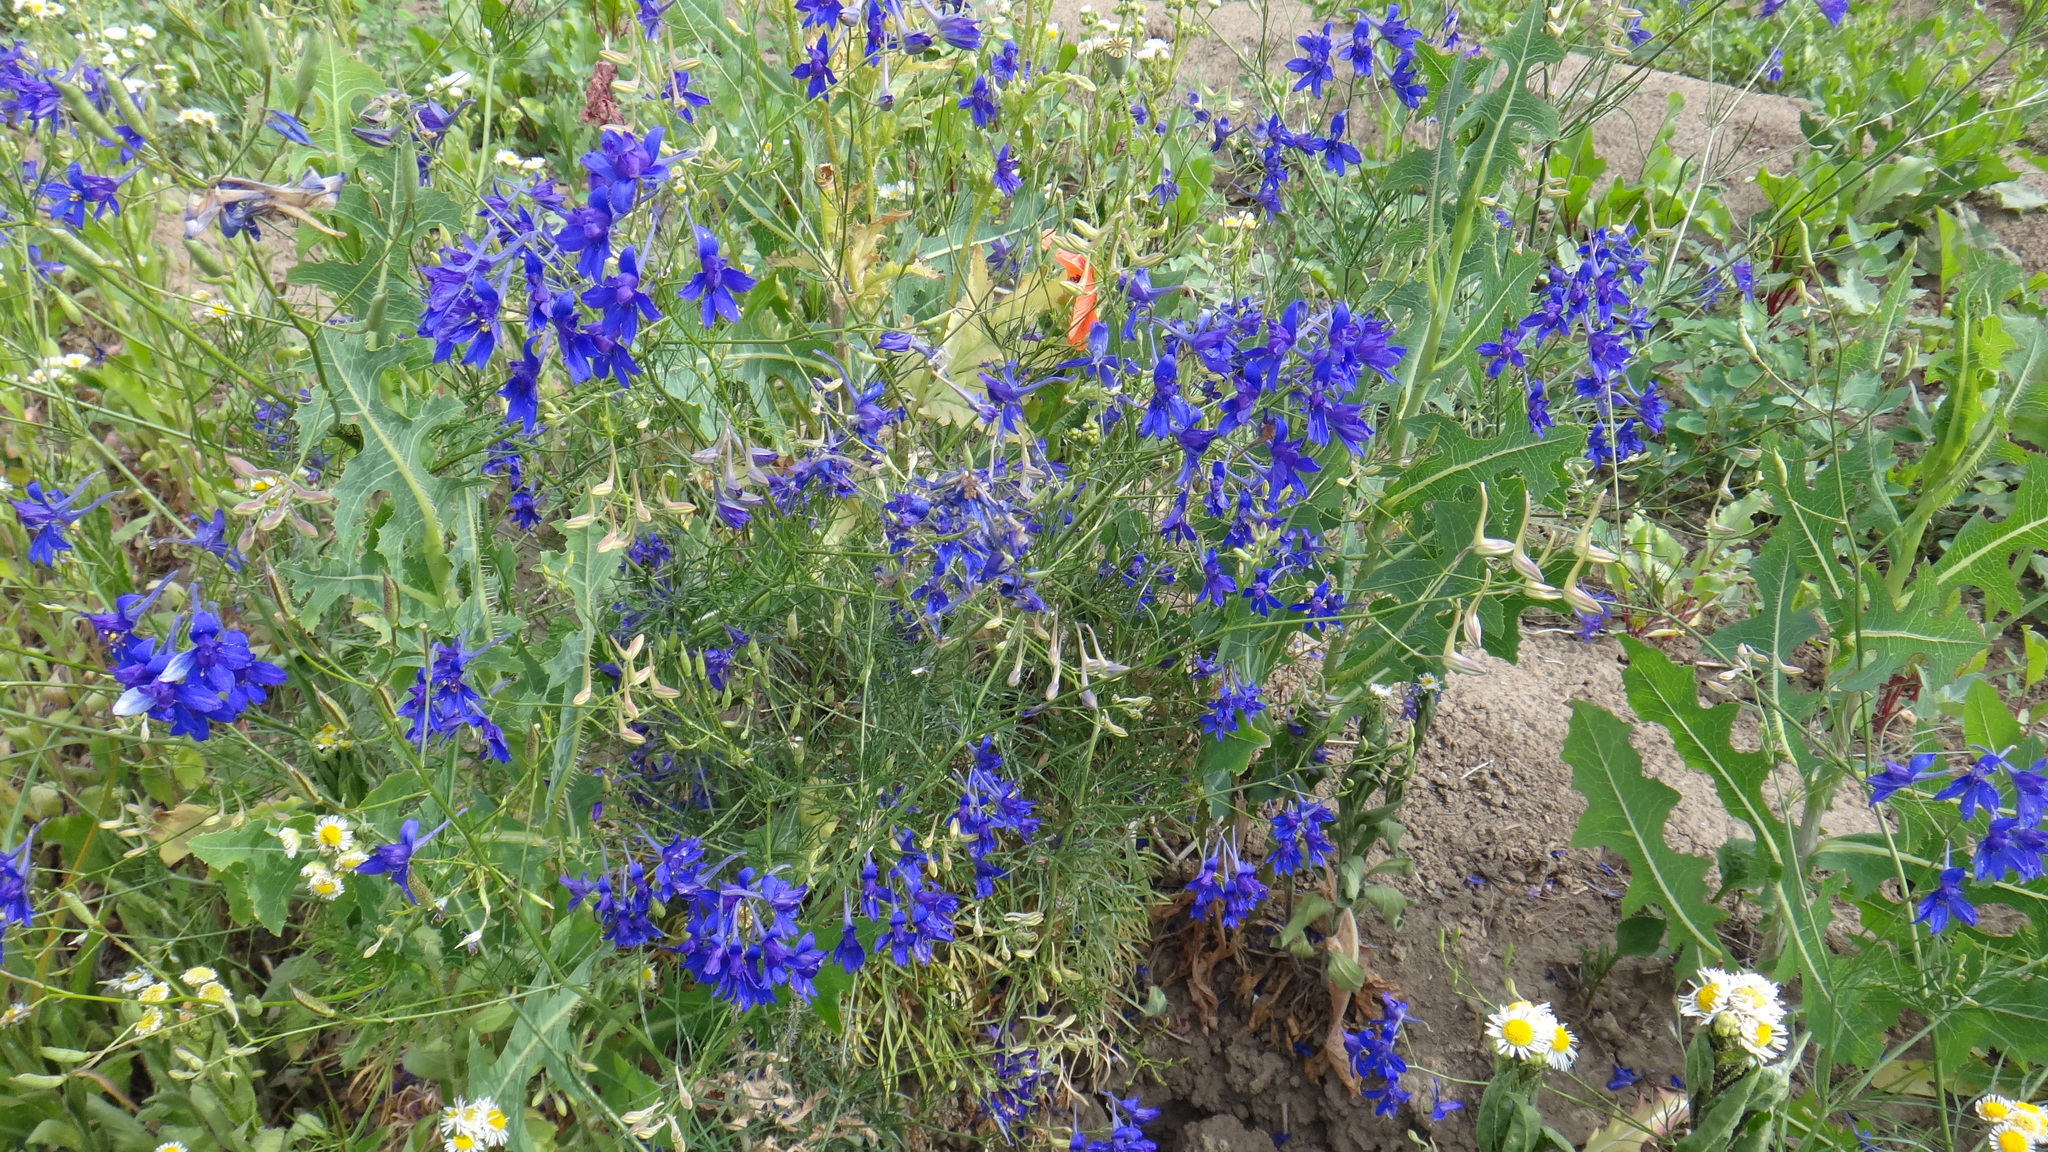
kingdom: Plantae
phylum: Tracheophyta
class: Magnoliopsida
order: Ranunculales
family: Ranunculaceae
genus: Delphinium
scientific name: Delphinium consolida
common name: Branching larkspur
